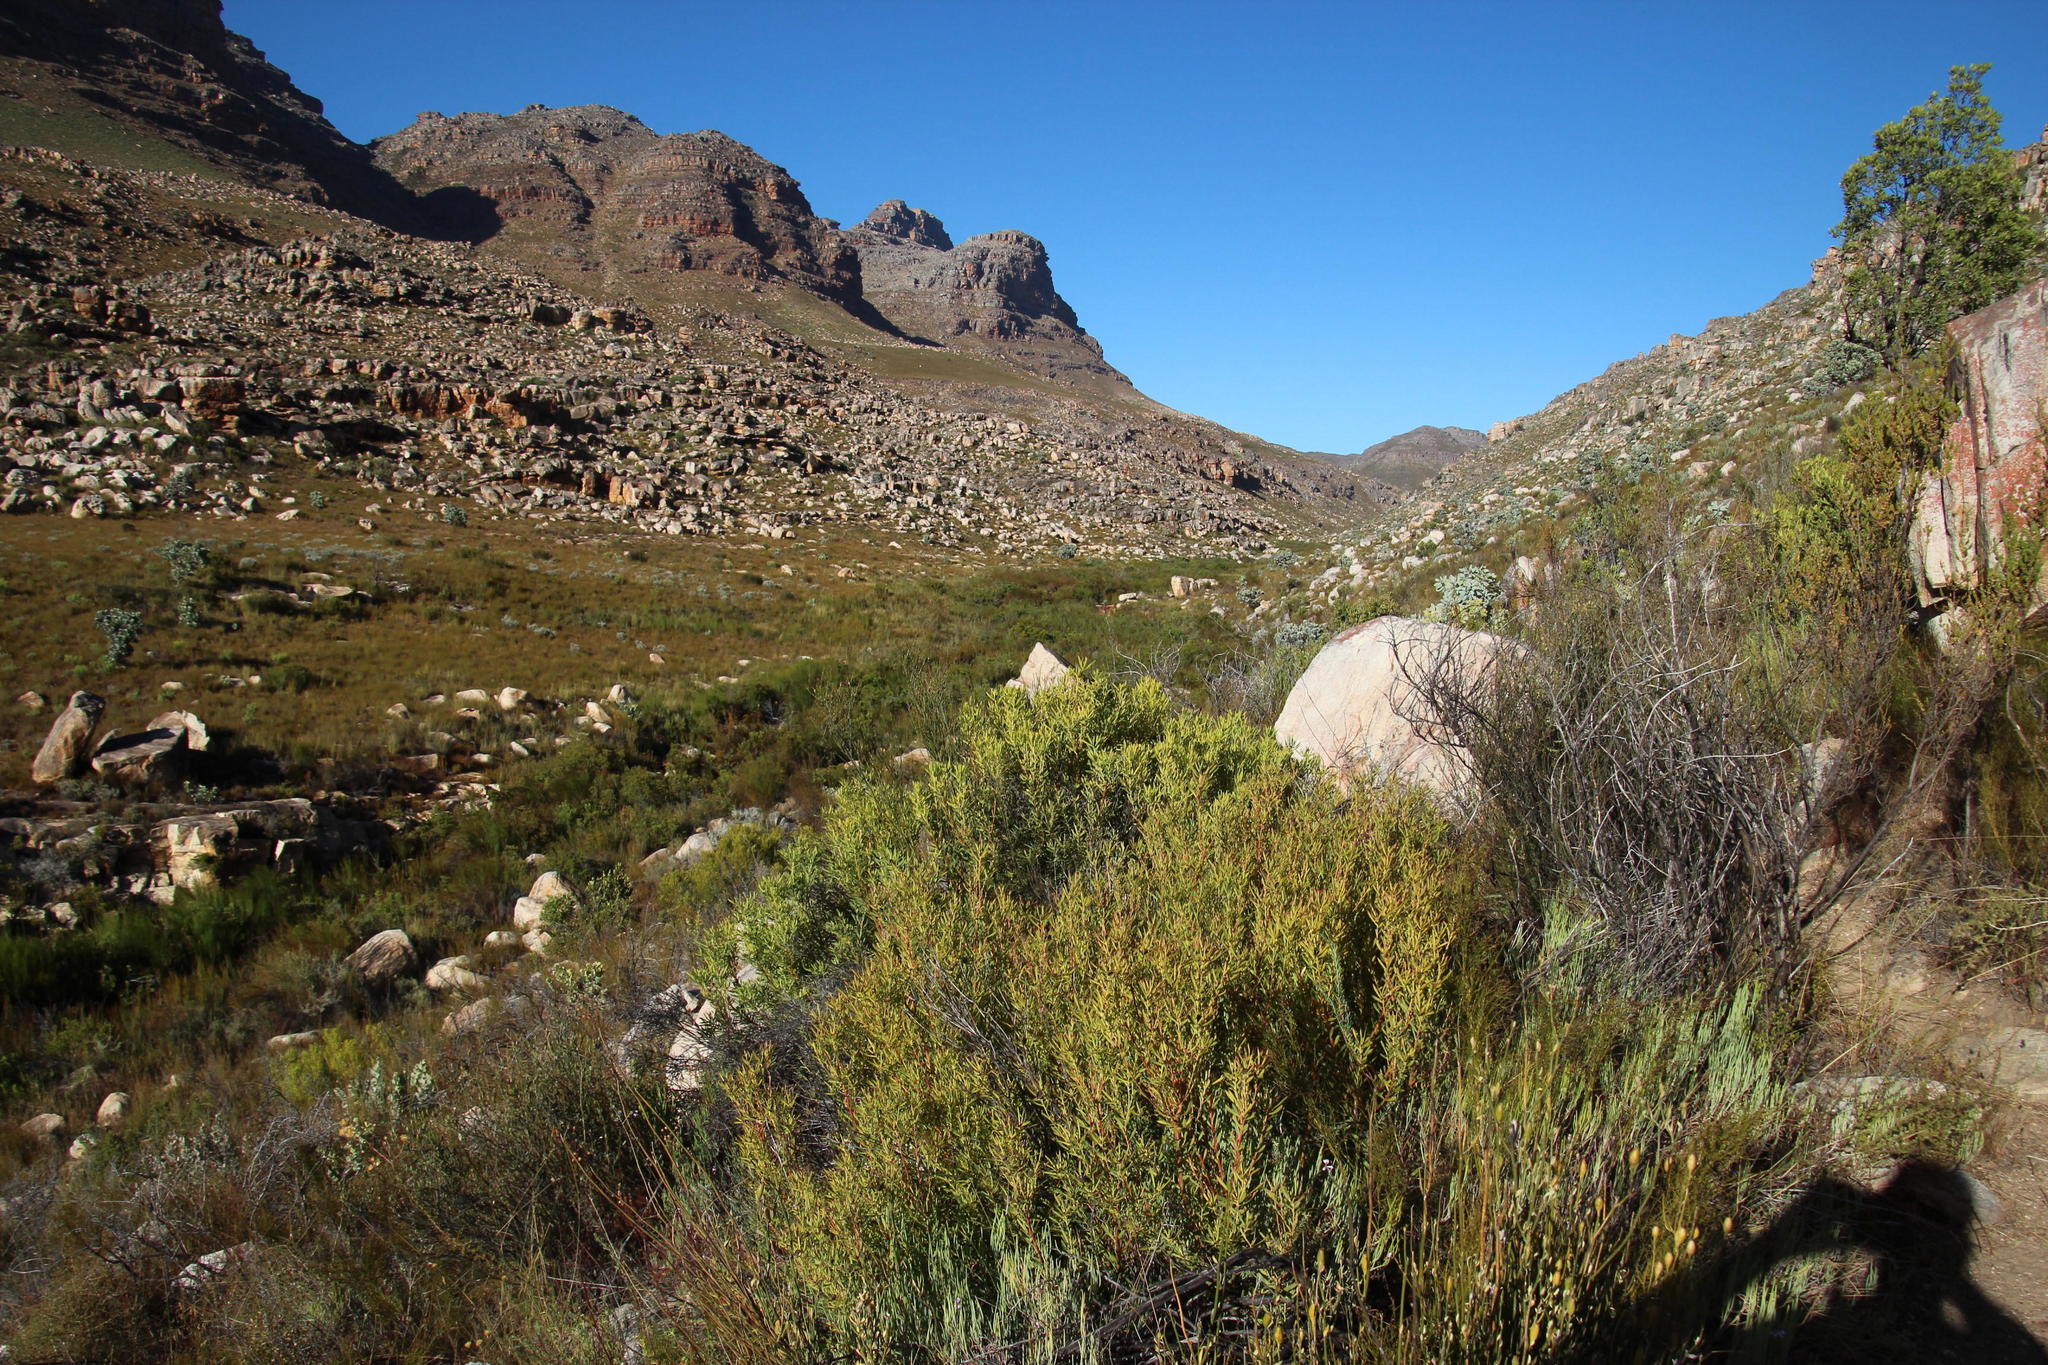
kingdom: Plantae
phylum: Tracheophyta
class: Magnoliopsida
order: Proteales
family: Proteaceae
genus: Leucadendron
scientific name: Leucadendron salignum
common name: Common sunshine conebush
